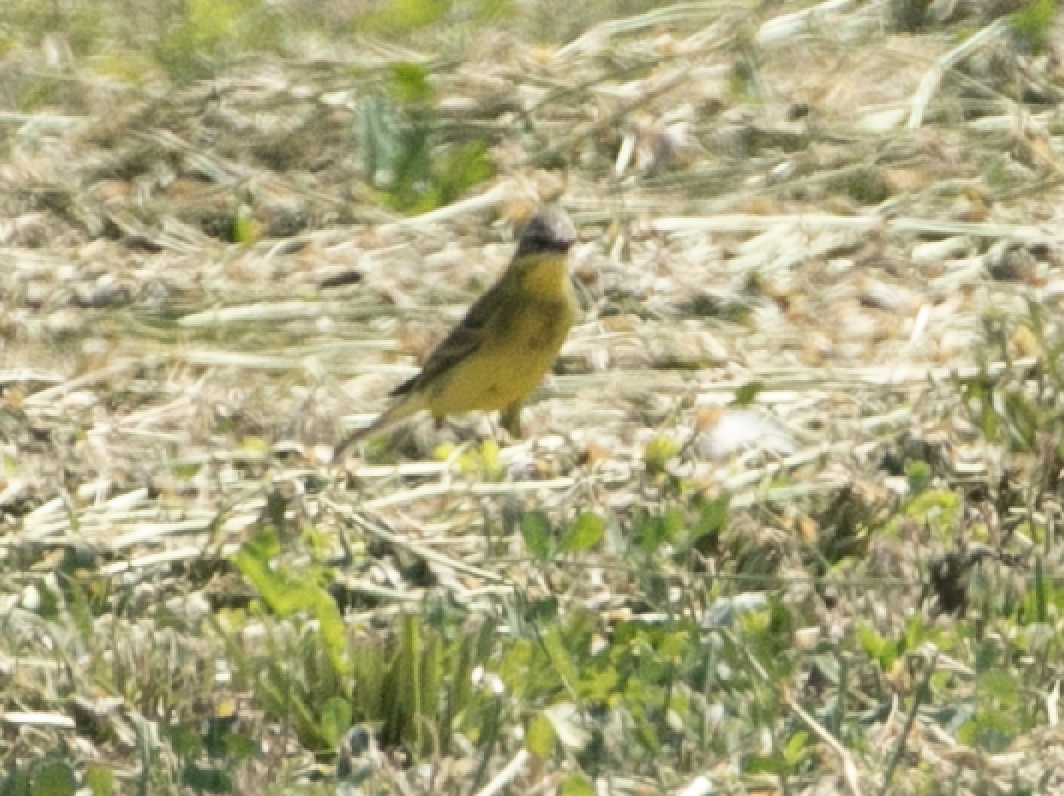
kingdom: Animalia
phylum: Chordata
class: Aves
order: Passeriformes
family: Motacillidae
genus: Motacilla
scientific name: Motacilla flava
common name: Western yellow wagtail
